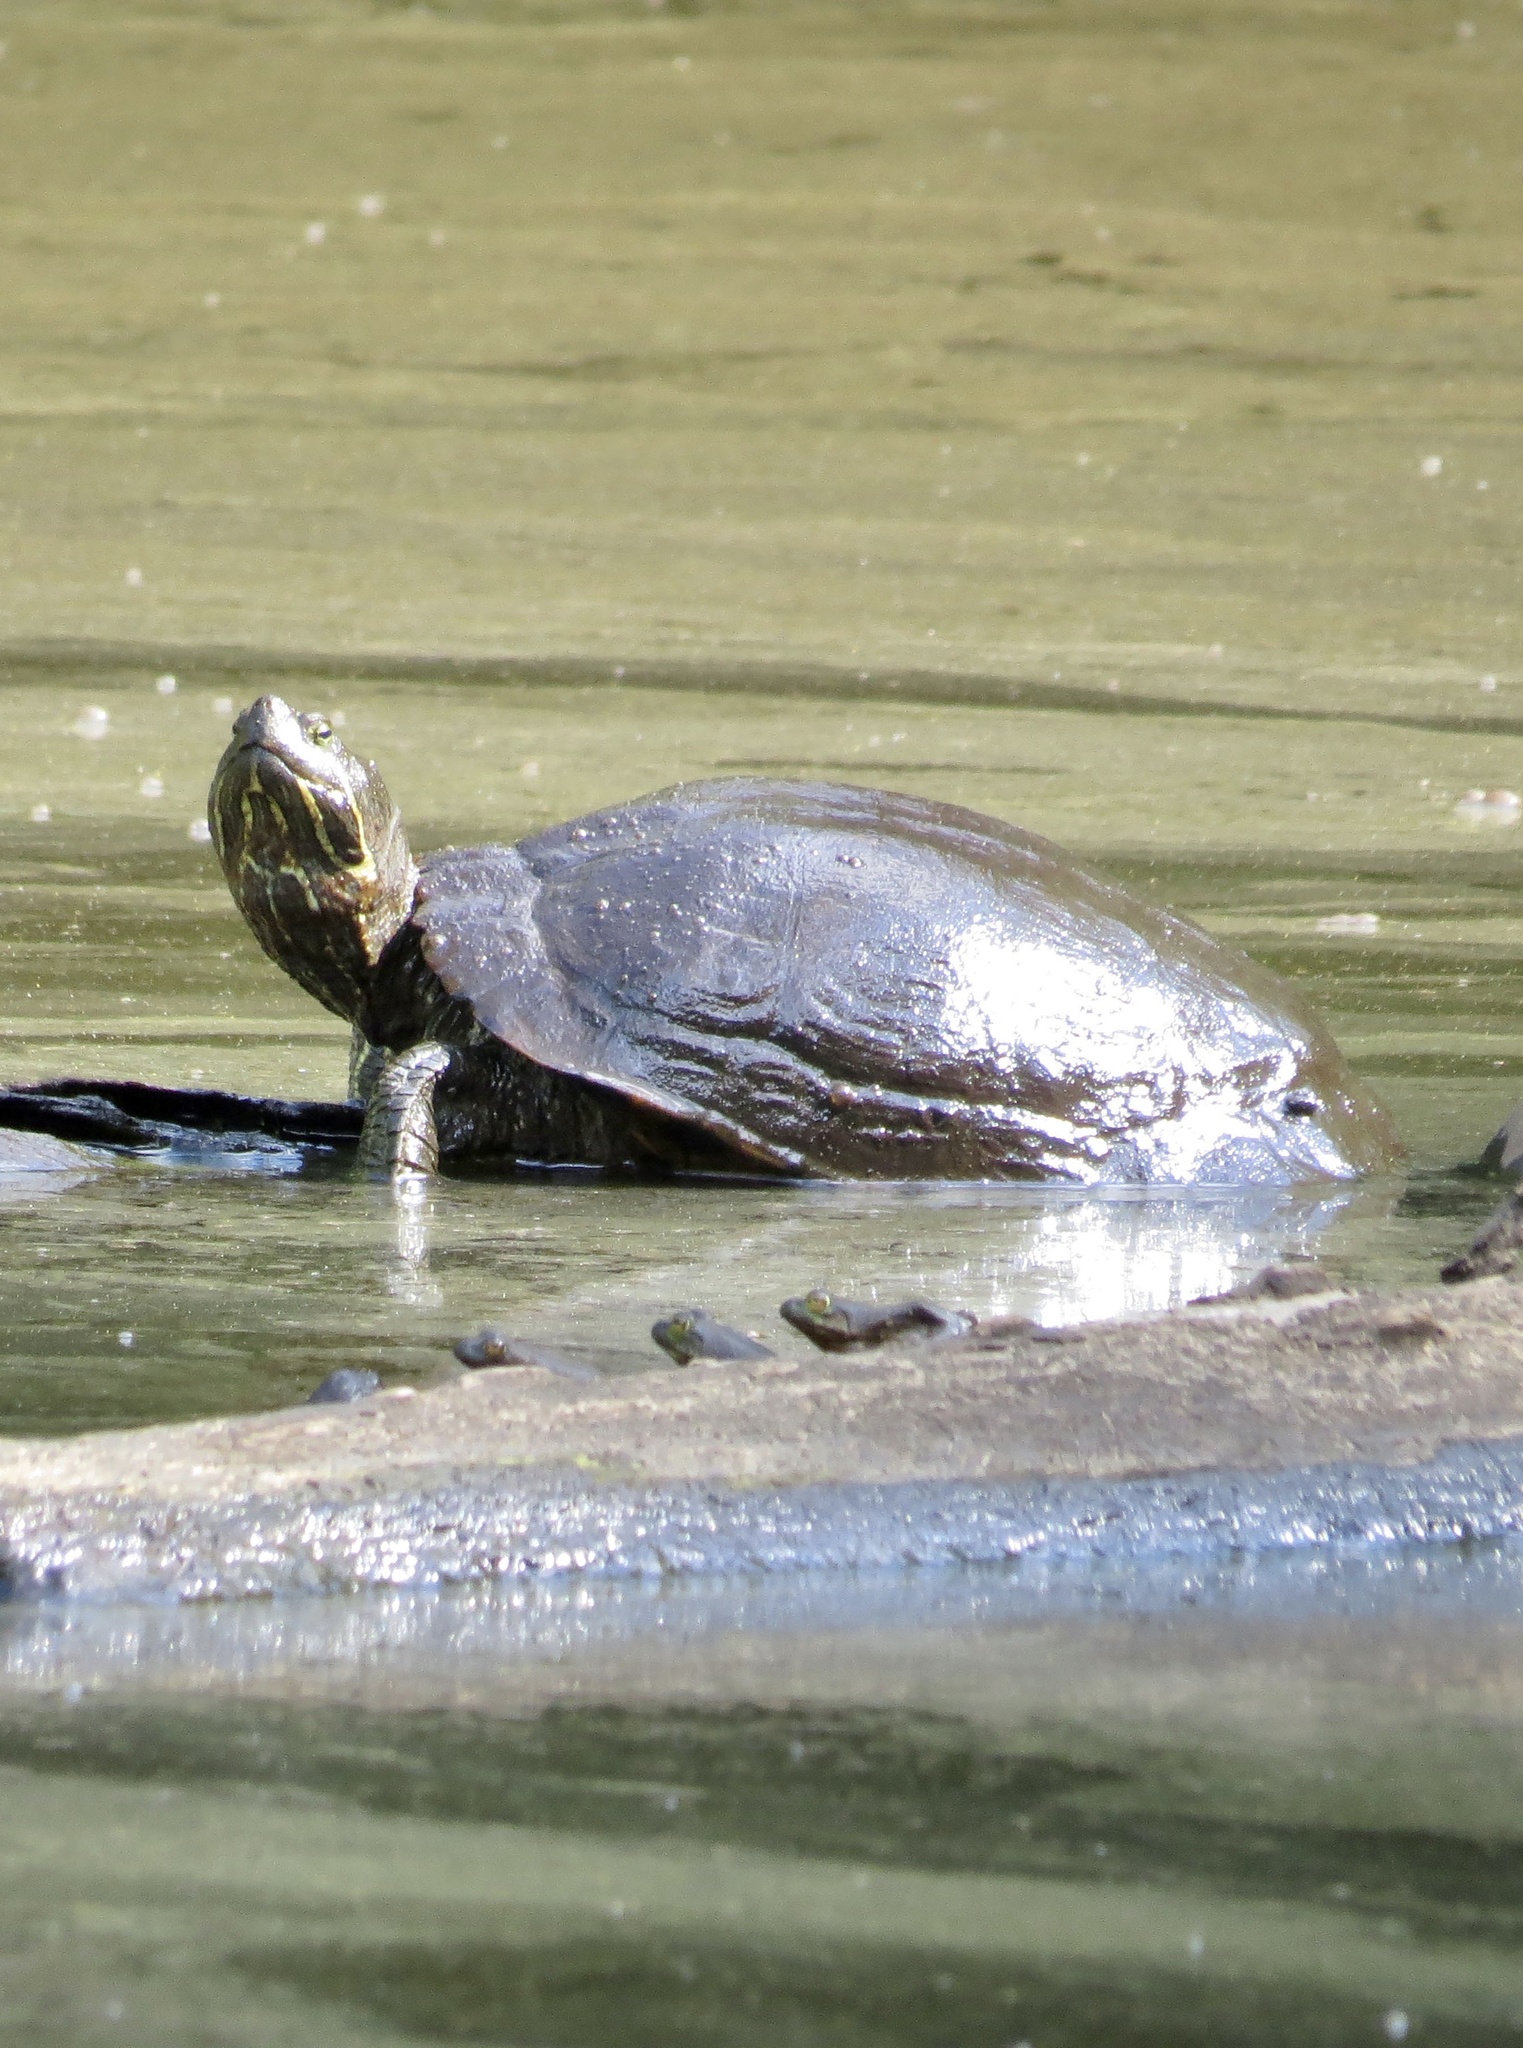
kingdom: Animalia
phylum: Chordata
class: Testudines
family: Emydidae
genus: Trachemys
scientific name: Trachemys scripta
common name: Slider
